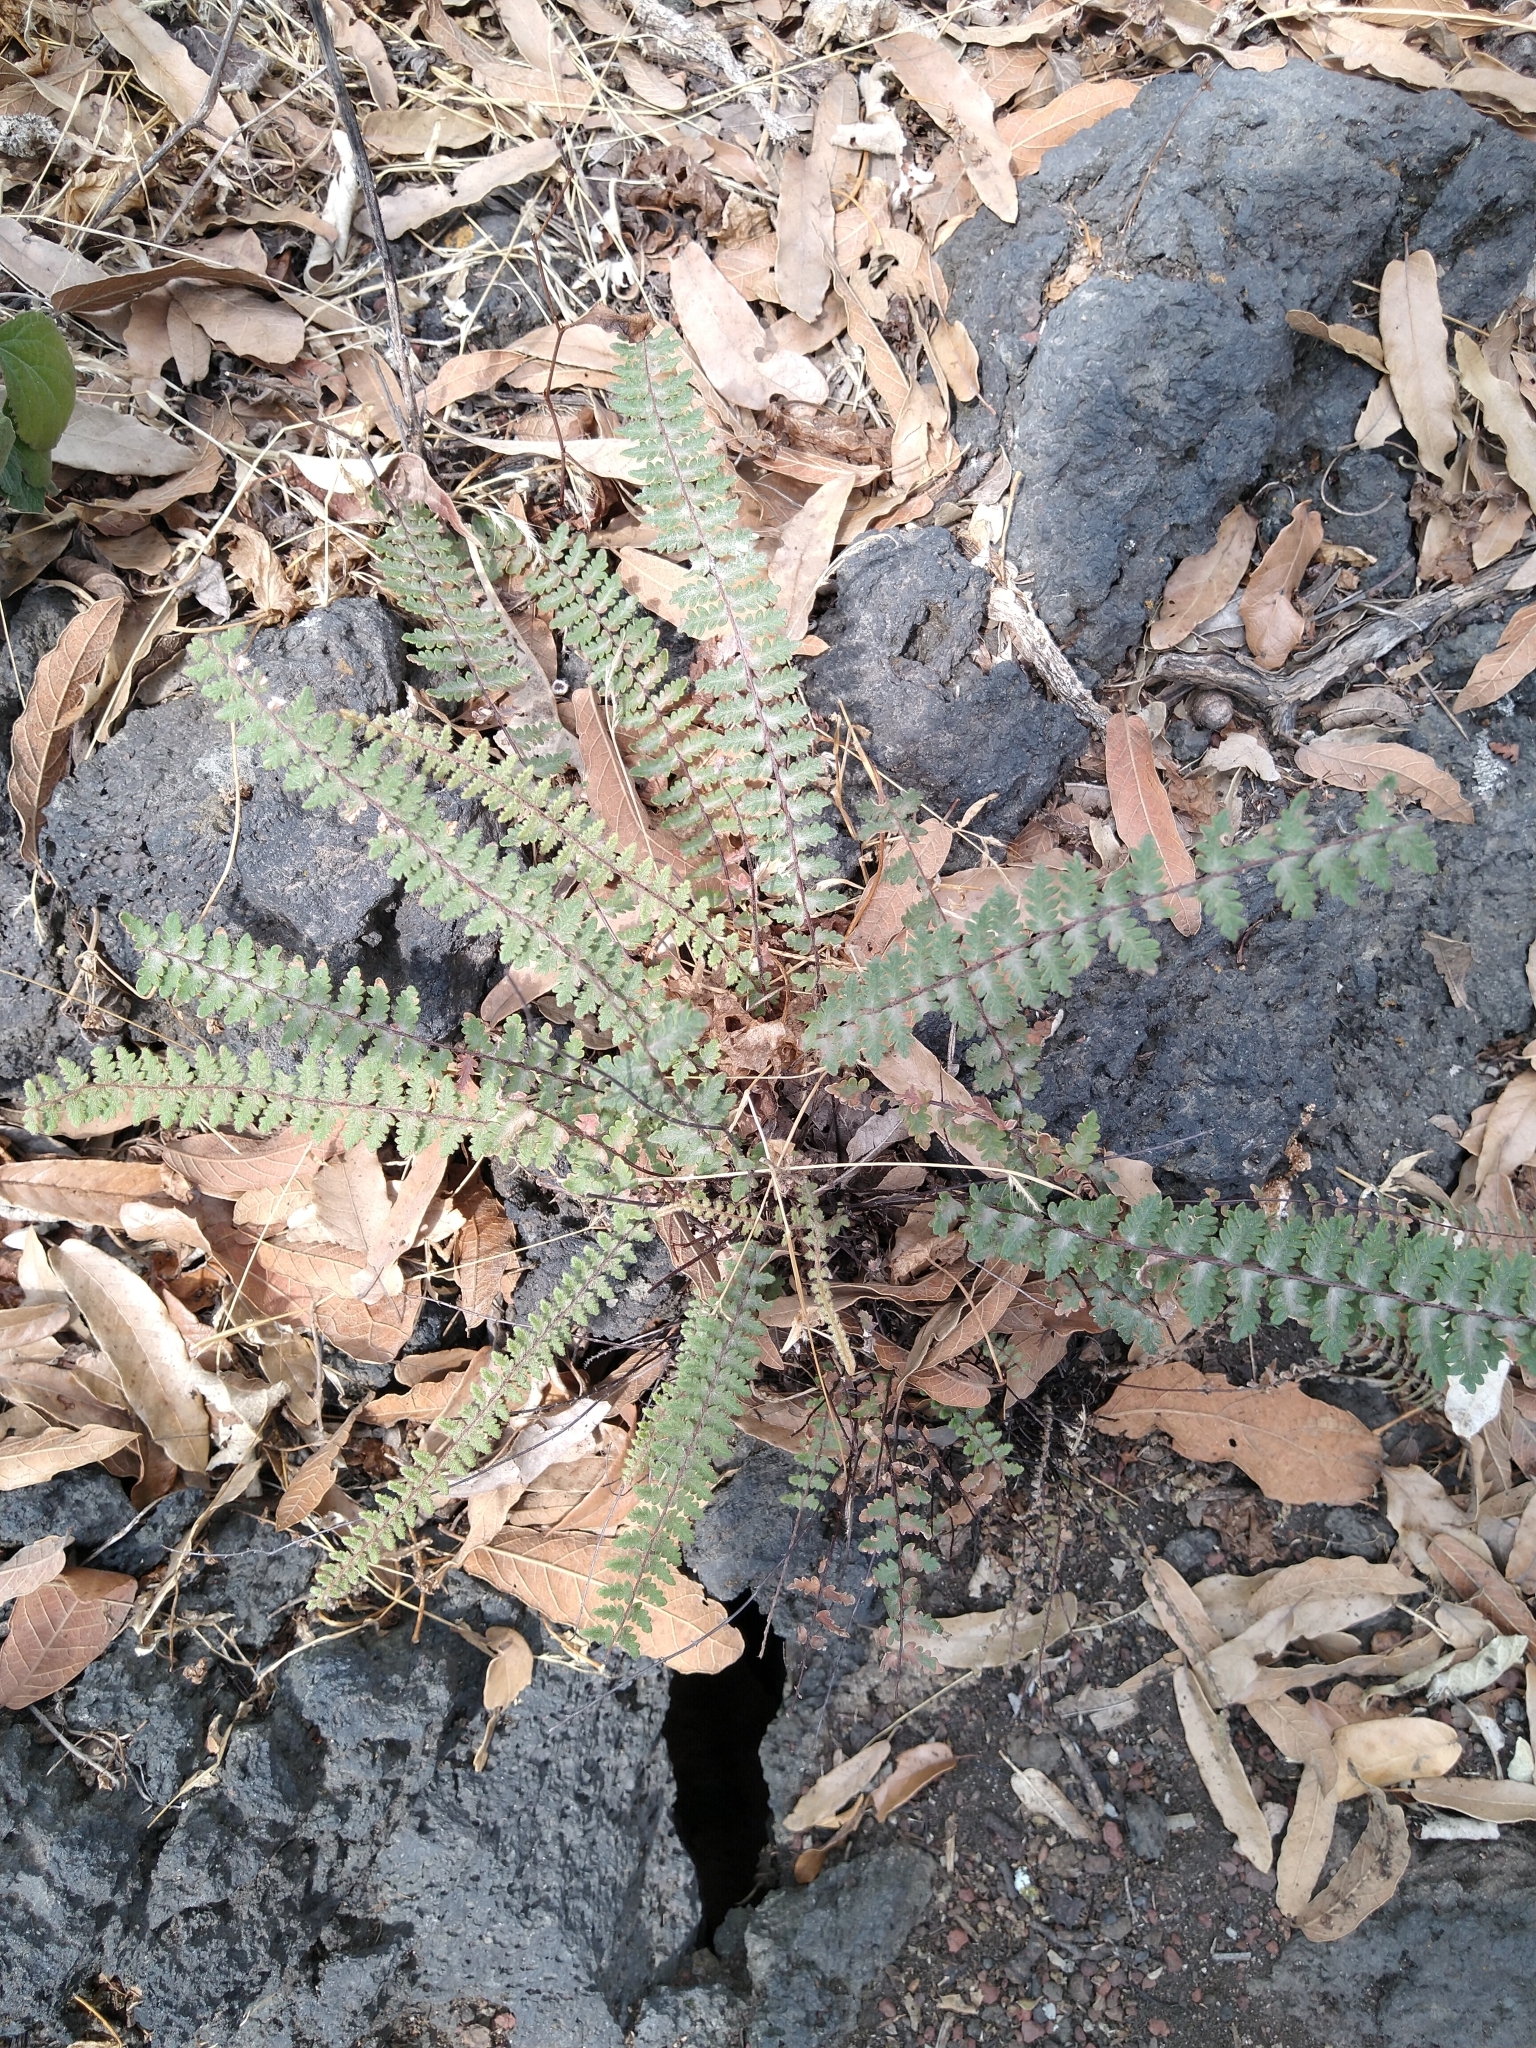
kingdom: Plantae
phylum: Tracheophyta
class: Polypodiopsida
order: Polypodiales
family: Pteridaceae
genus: Myriopteris
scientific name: Myriopteris aurea
